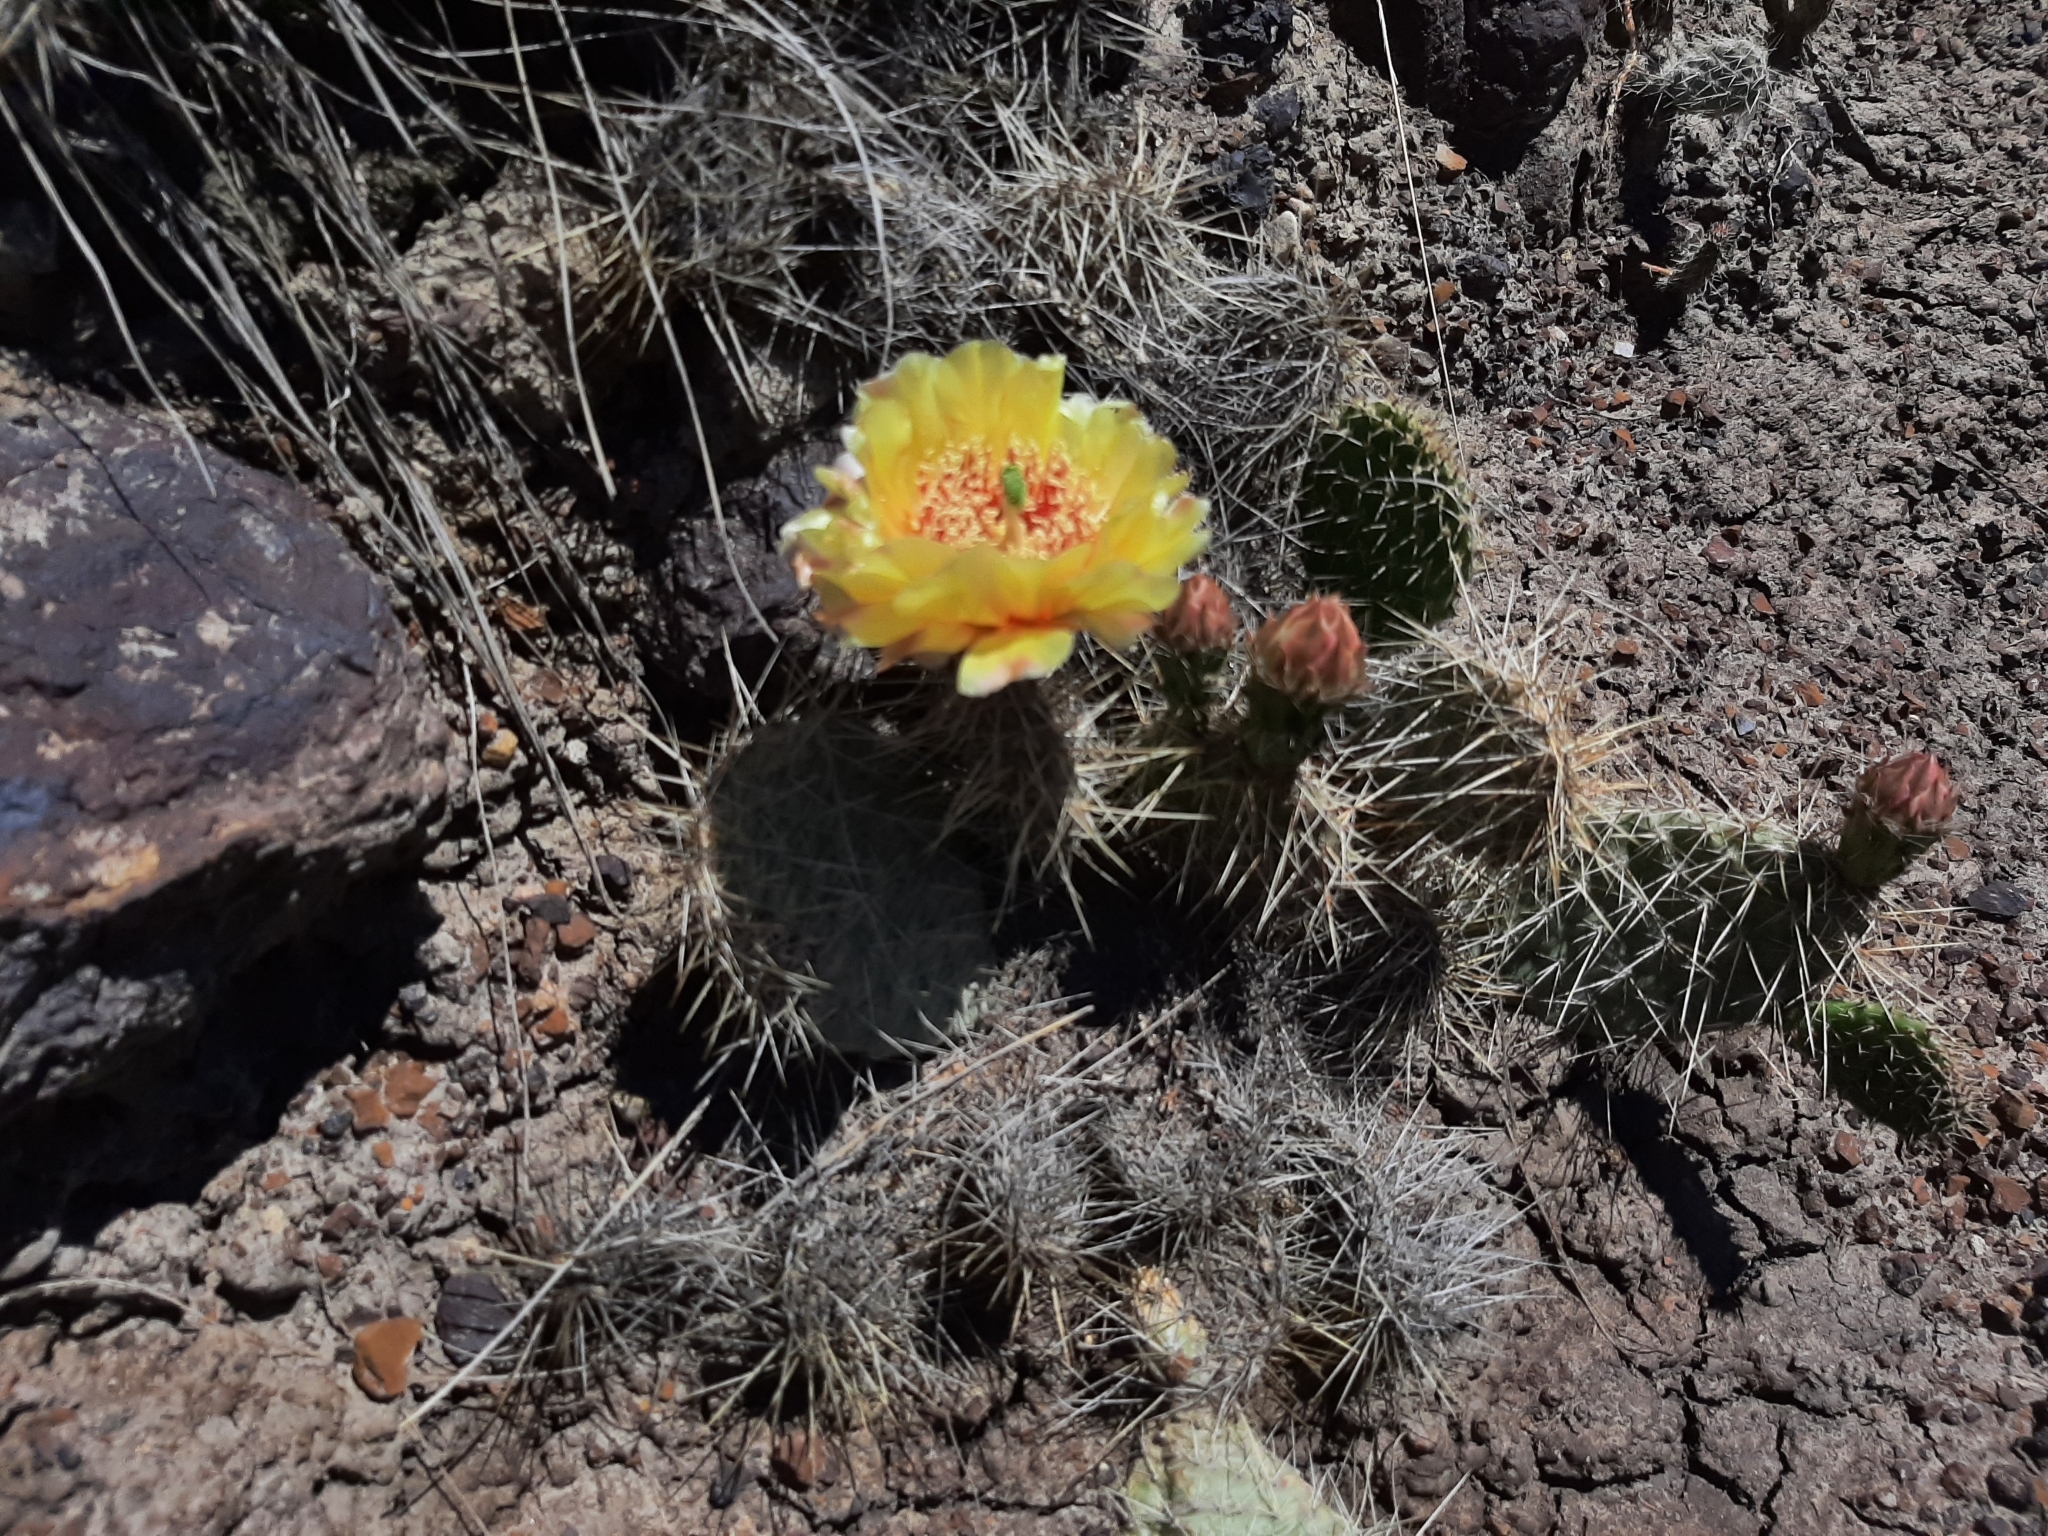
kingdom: Plantae
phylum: Tracheophyta
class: Magnoliopsida
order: Caryophyllales
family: Cactaceae
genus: Opuntia
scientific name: Opuntia polyacantha
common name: Plains prickly-pear
